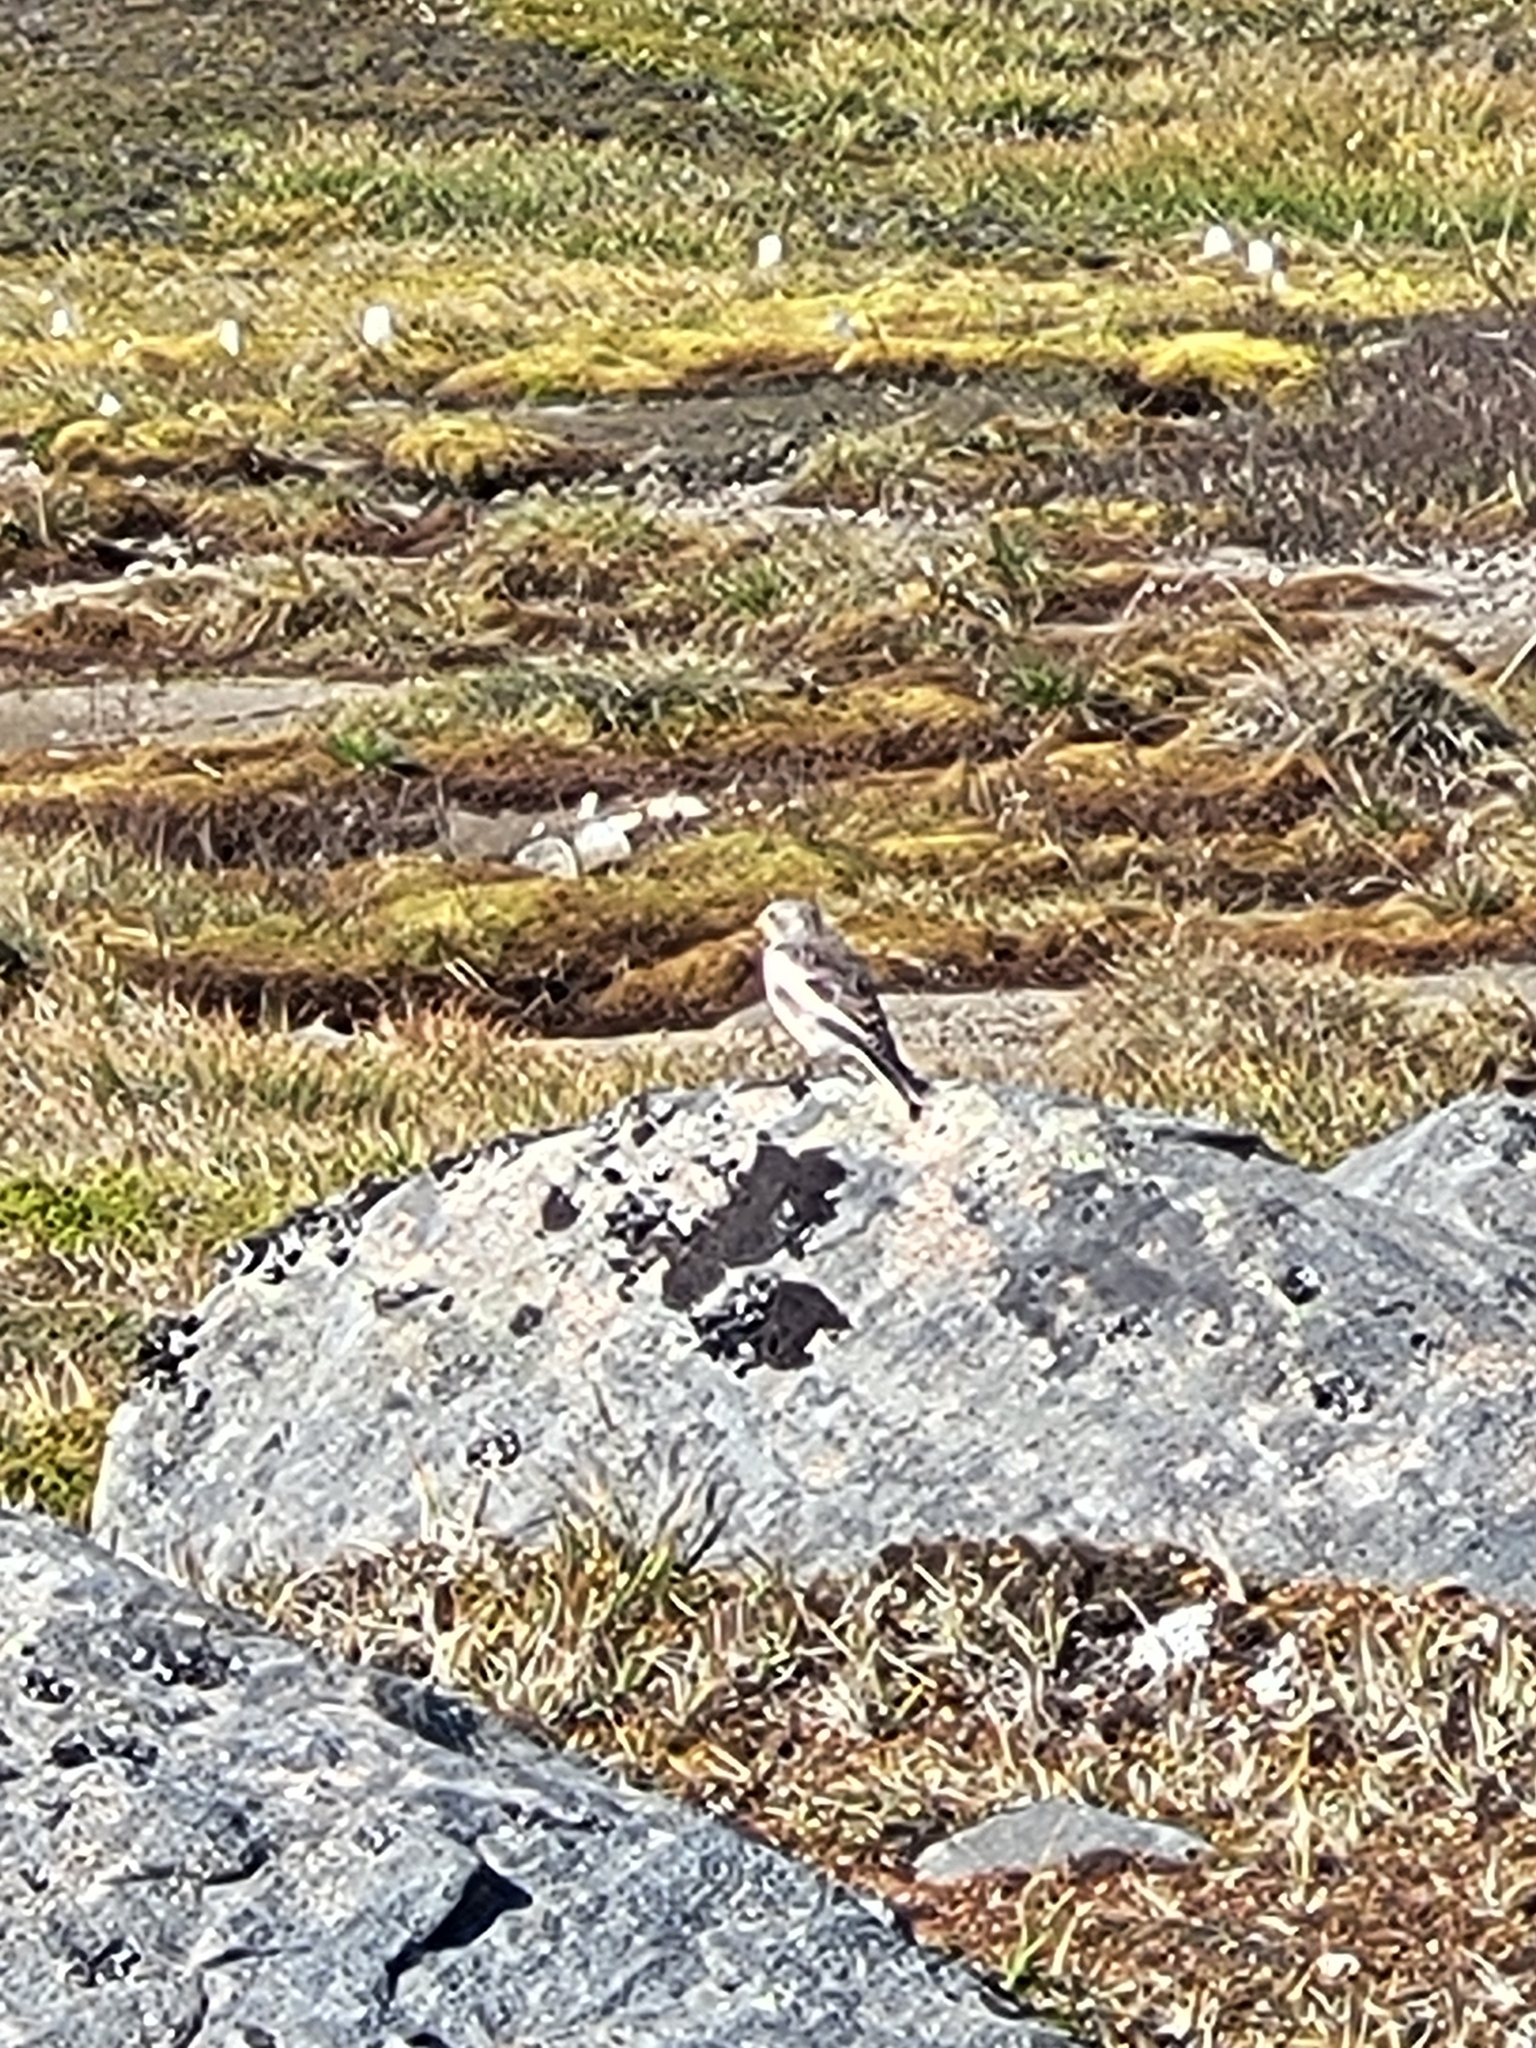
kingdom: Animalia
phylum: Chordata
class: Aves
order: Passeriformes
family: Calcariidae
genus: Plectrophenax
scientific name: Plectrophenax nivalis
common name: Snow bunting
